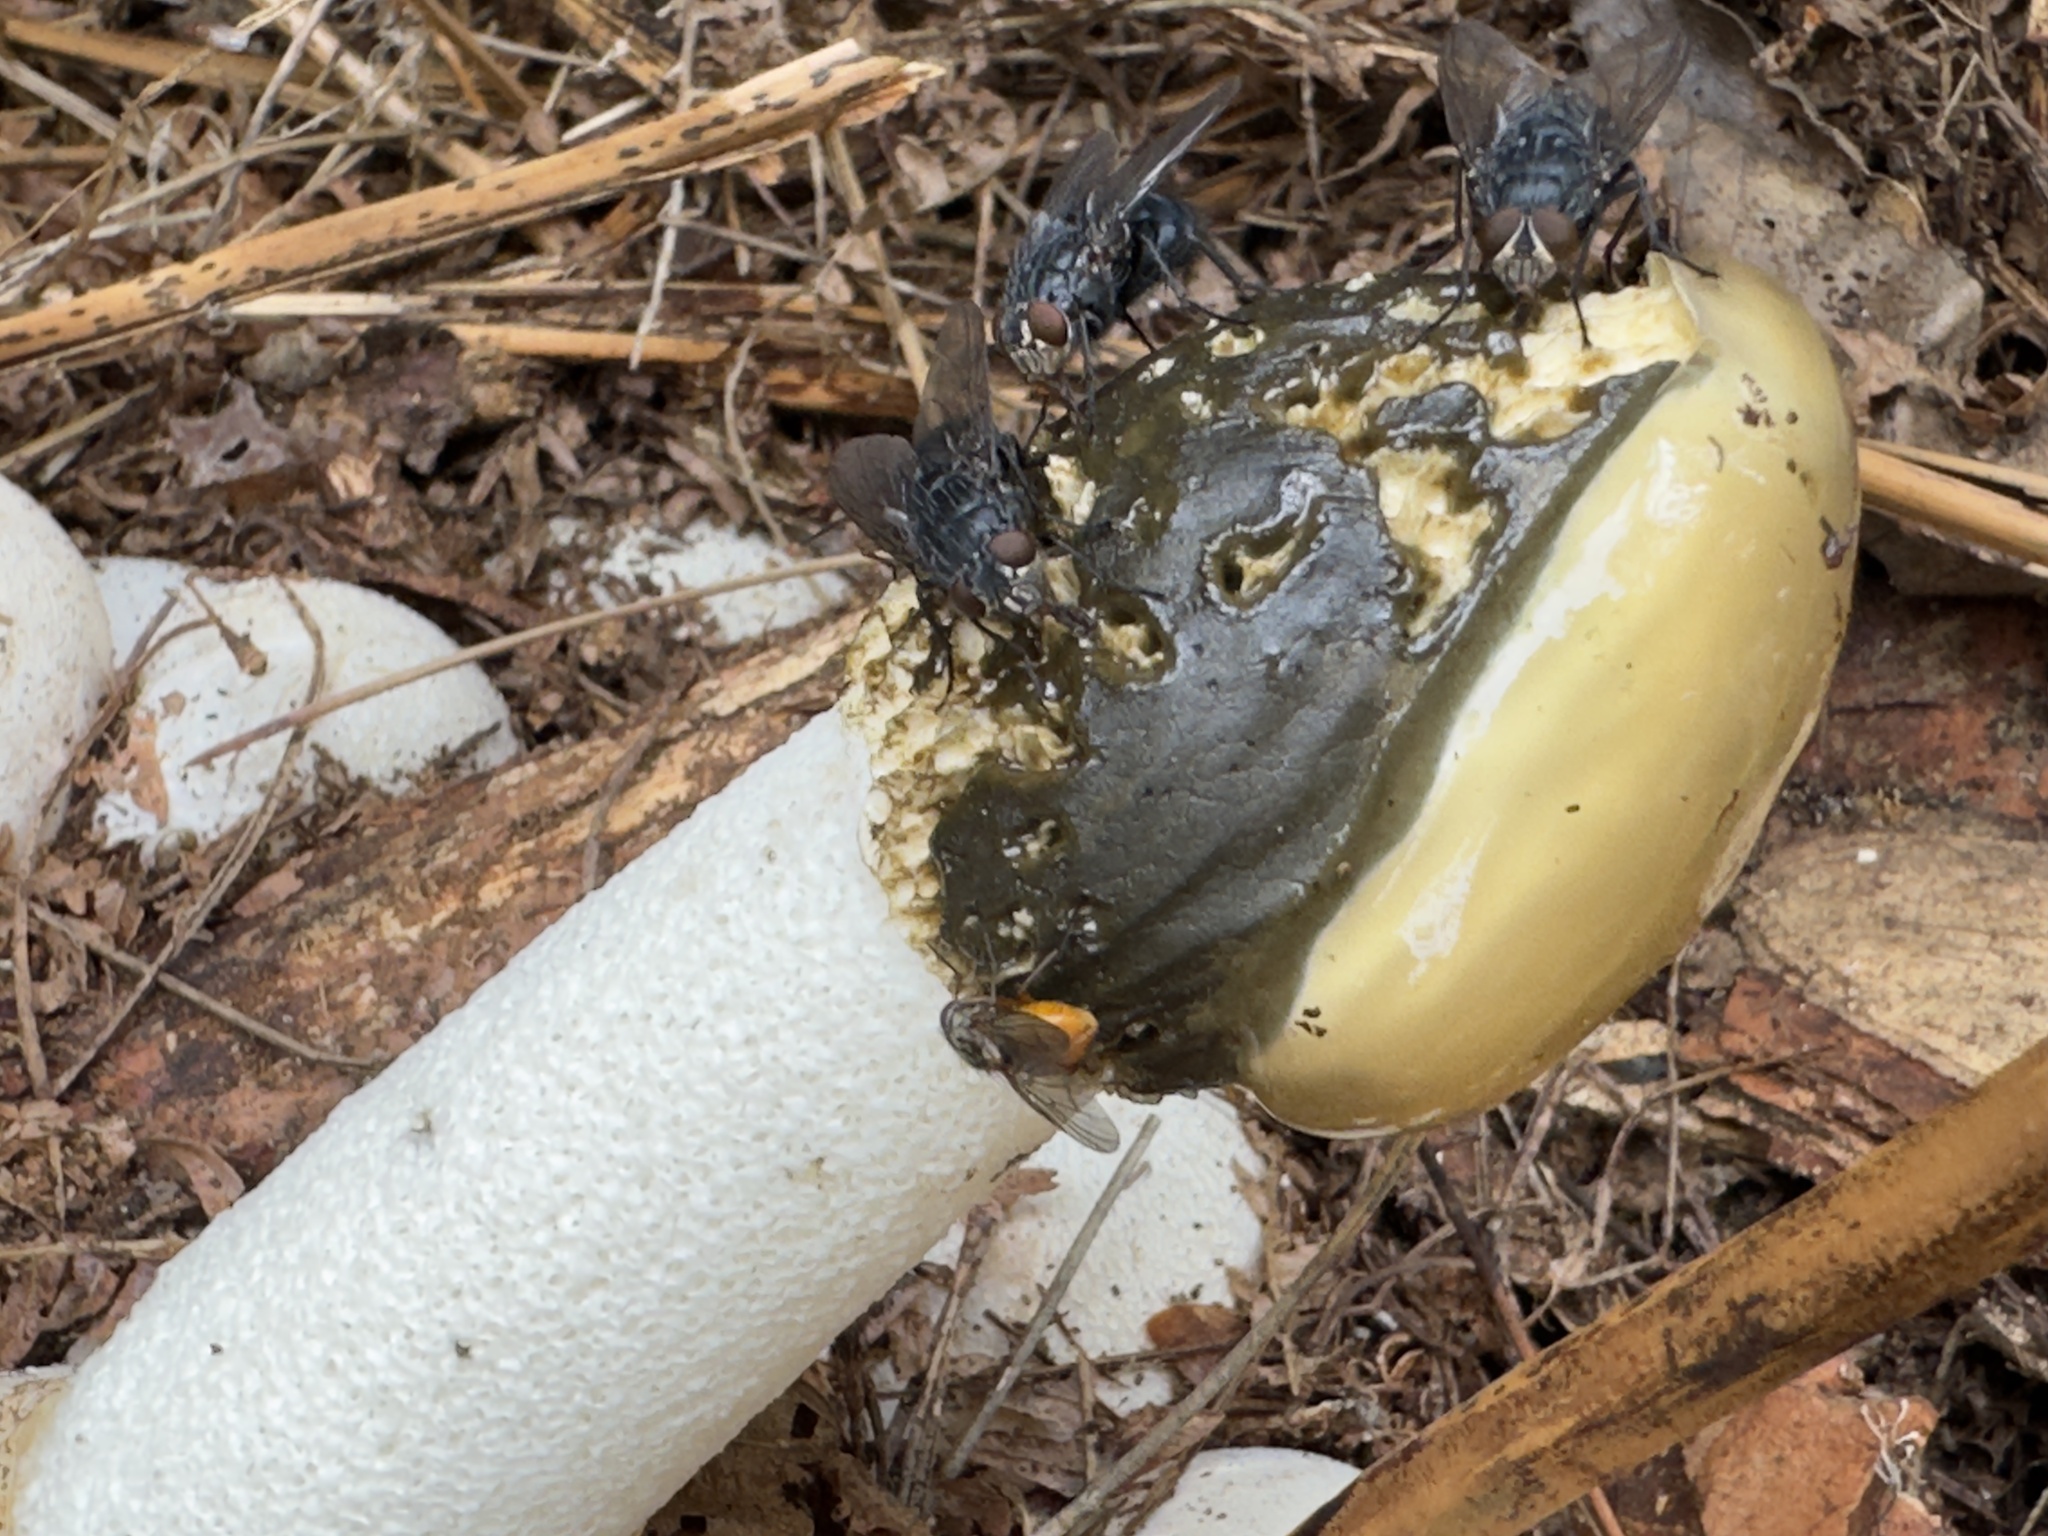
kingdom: Fungi
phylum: Basidiomycota
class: Agaricomycetes
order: Phallales
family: Phallaceae
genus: Phallus
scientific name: Phallus impudicus
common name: Common stinkhorn
